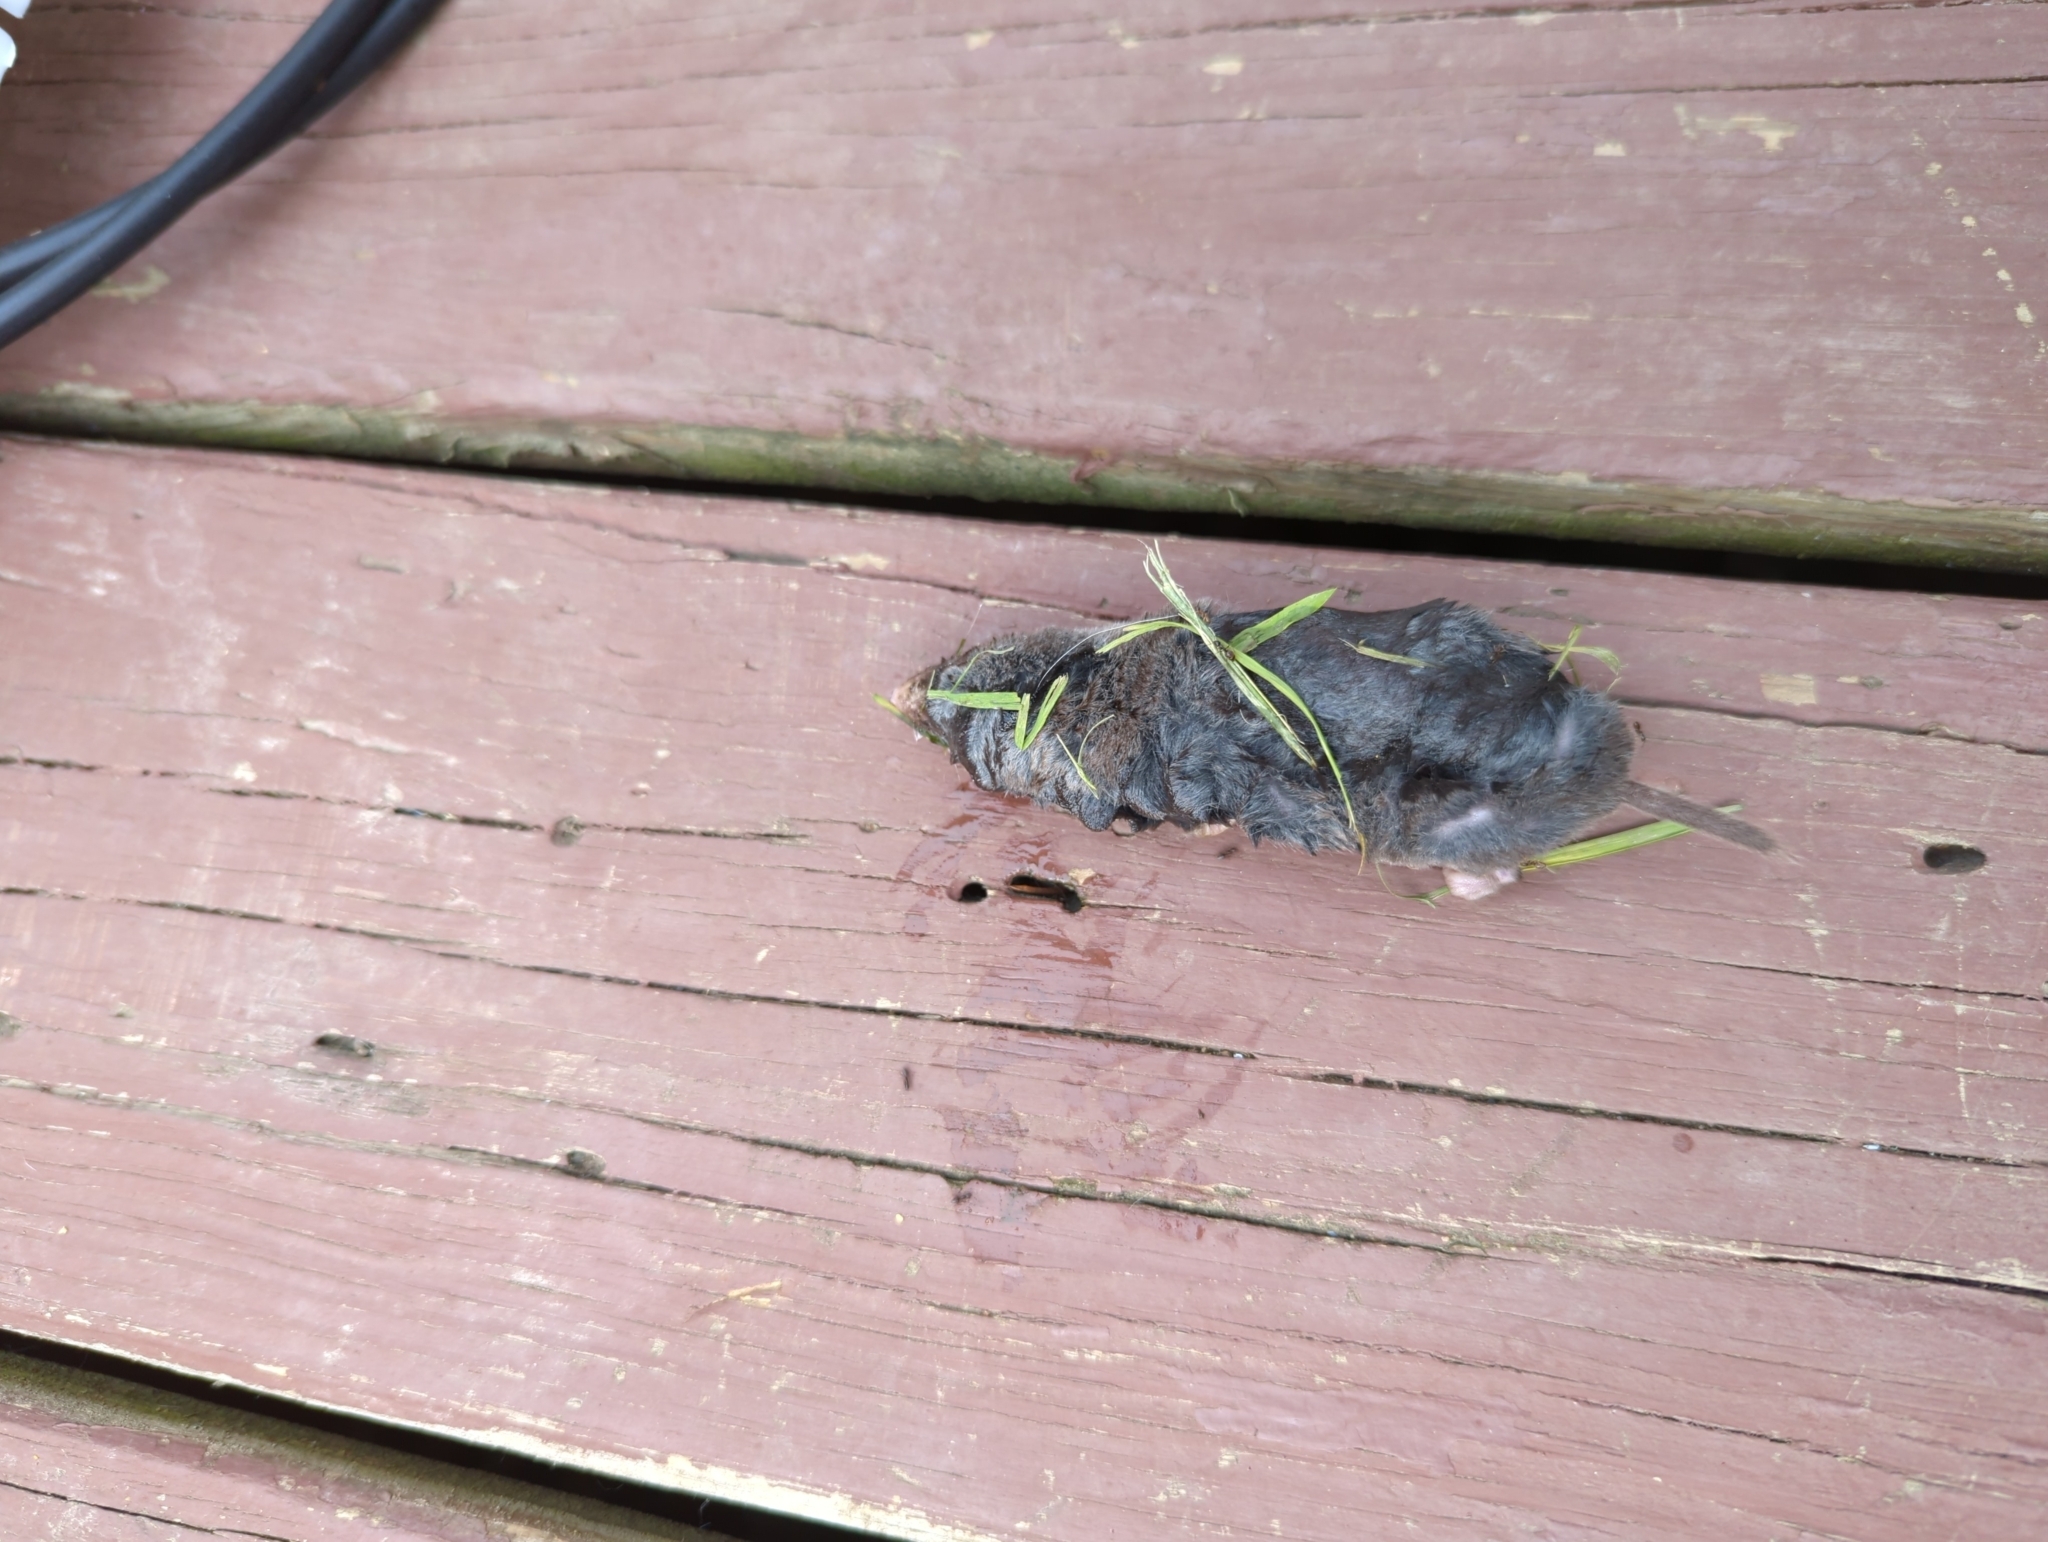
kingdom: Animalia
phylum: Chordata
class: Mammalia
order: Soricomorpha
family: Soricidae
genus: Blarina
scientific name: Blarina brevicauda
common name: Northern short-tailed shrew
